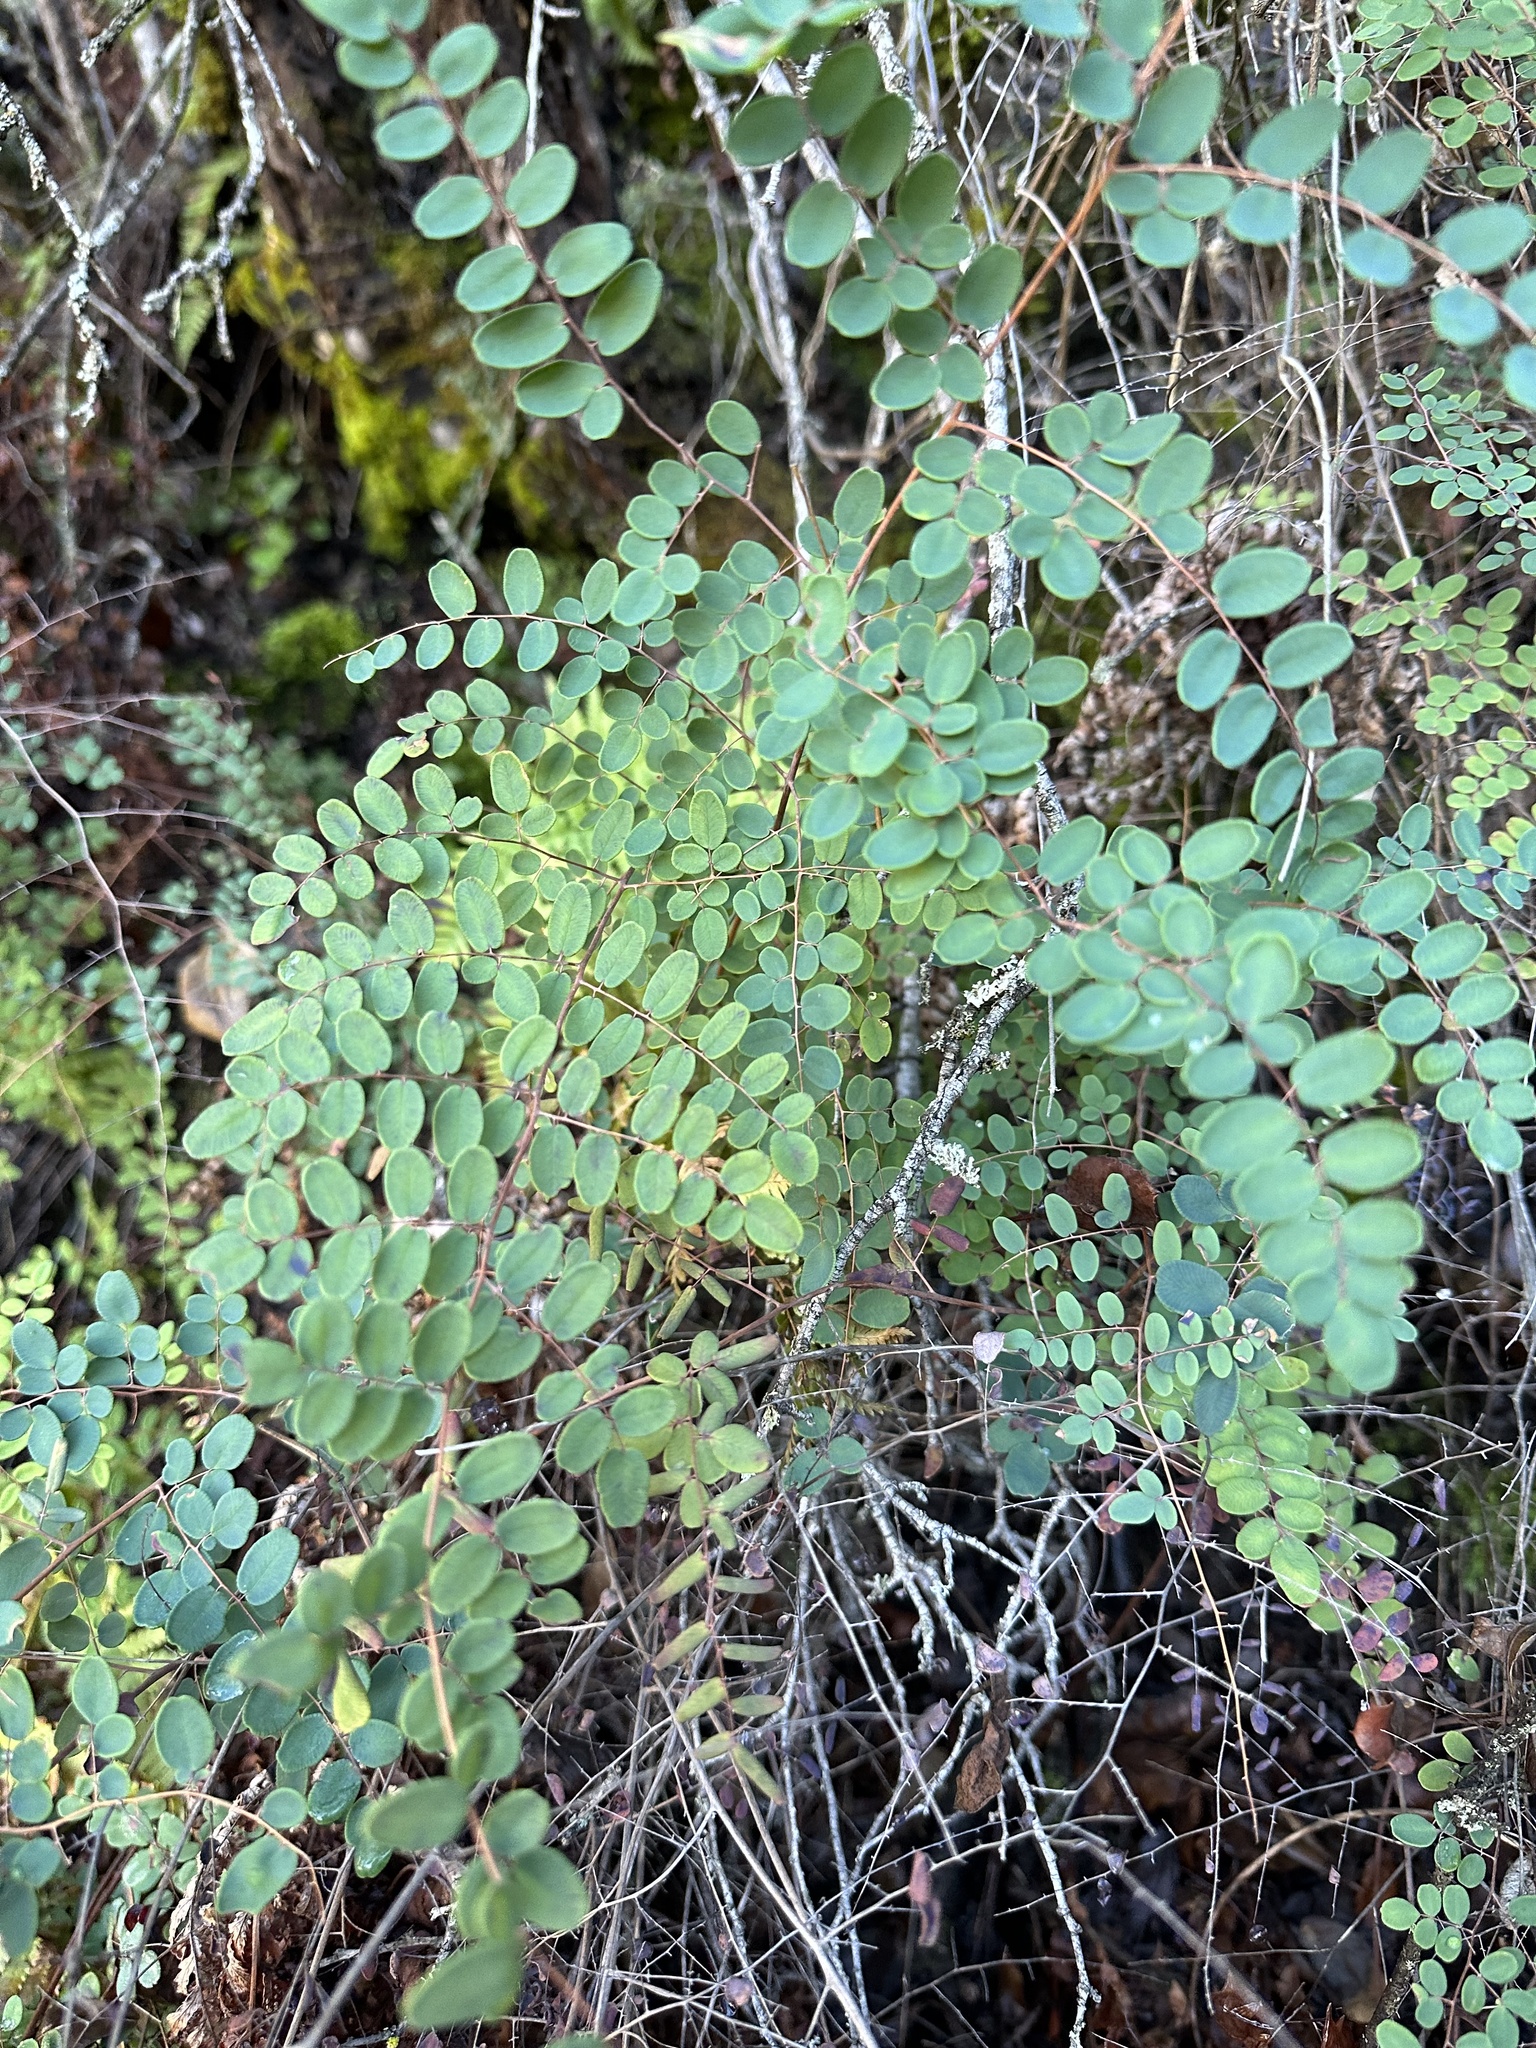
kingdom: Plantae
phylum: Tracheophyta
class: Polypodiopsida
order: Polypodiales
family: Pteridaceae
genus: Pellaea
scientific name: Pellaea andromedifolia
